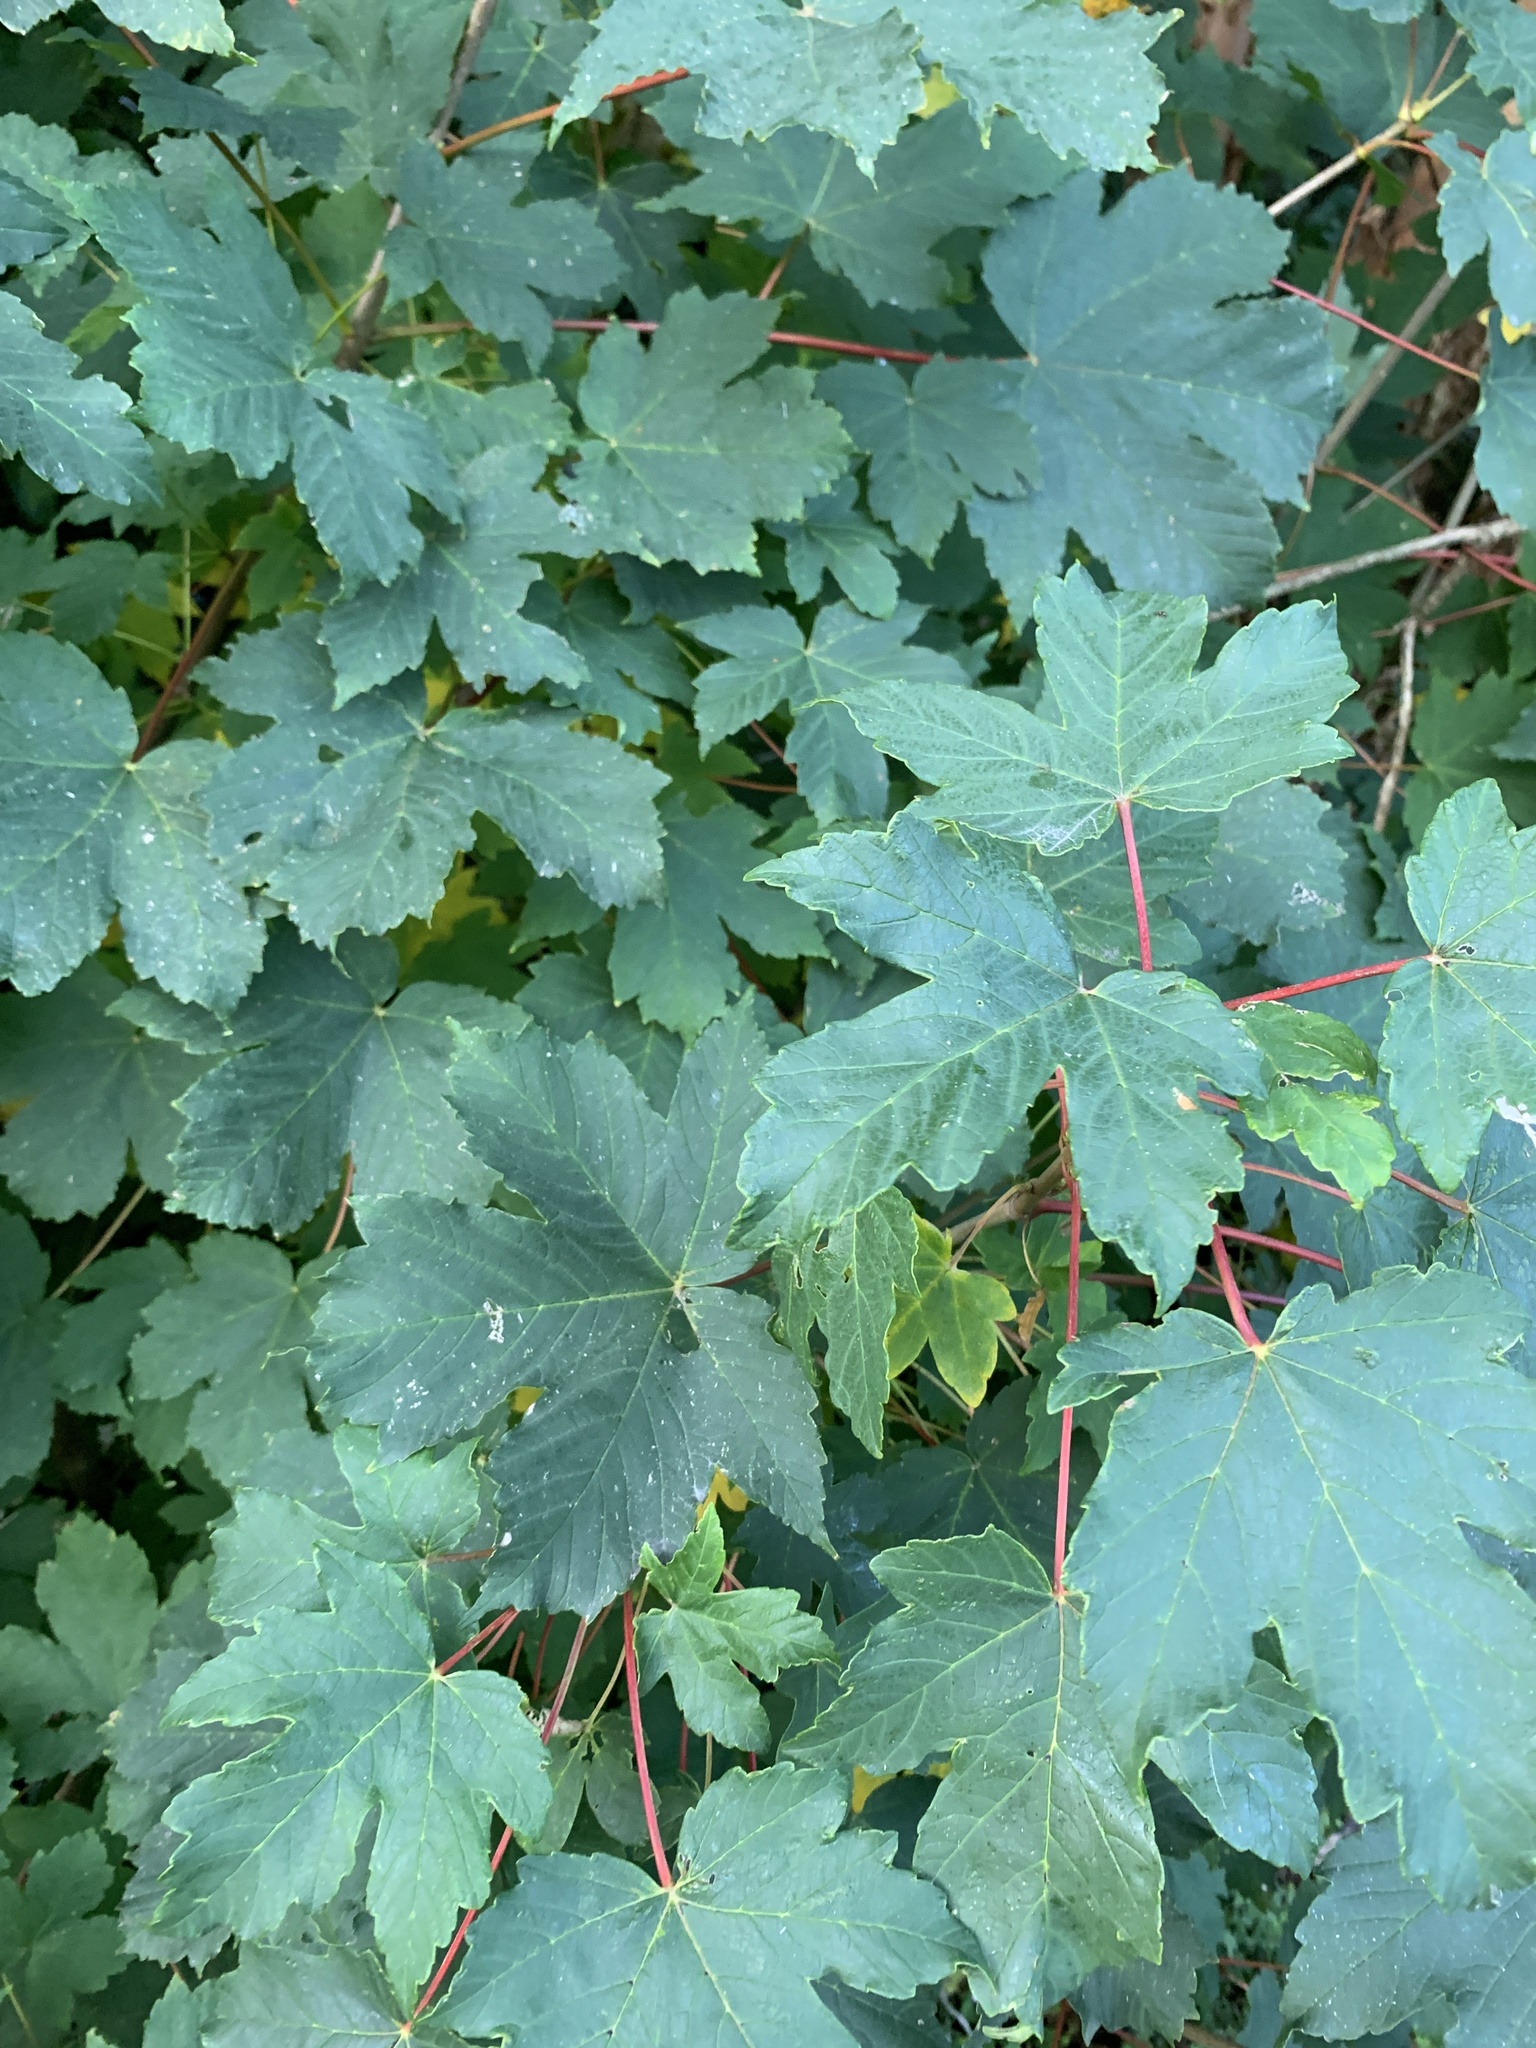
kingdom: Plantae
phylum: Tracheophyta
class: Magnoliopsida
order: Sapindales
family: Sapindaceae
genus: Acer
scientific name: Acer pseudoplatanus
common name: Sycamore
